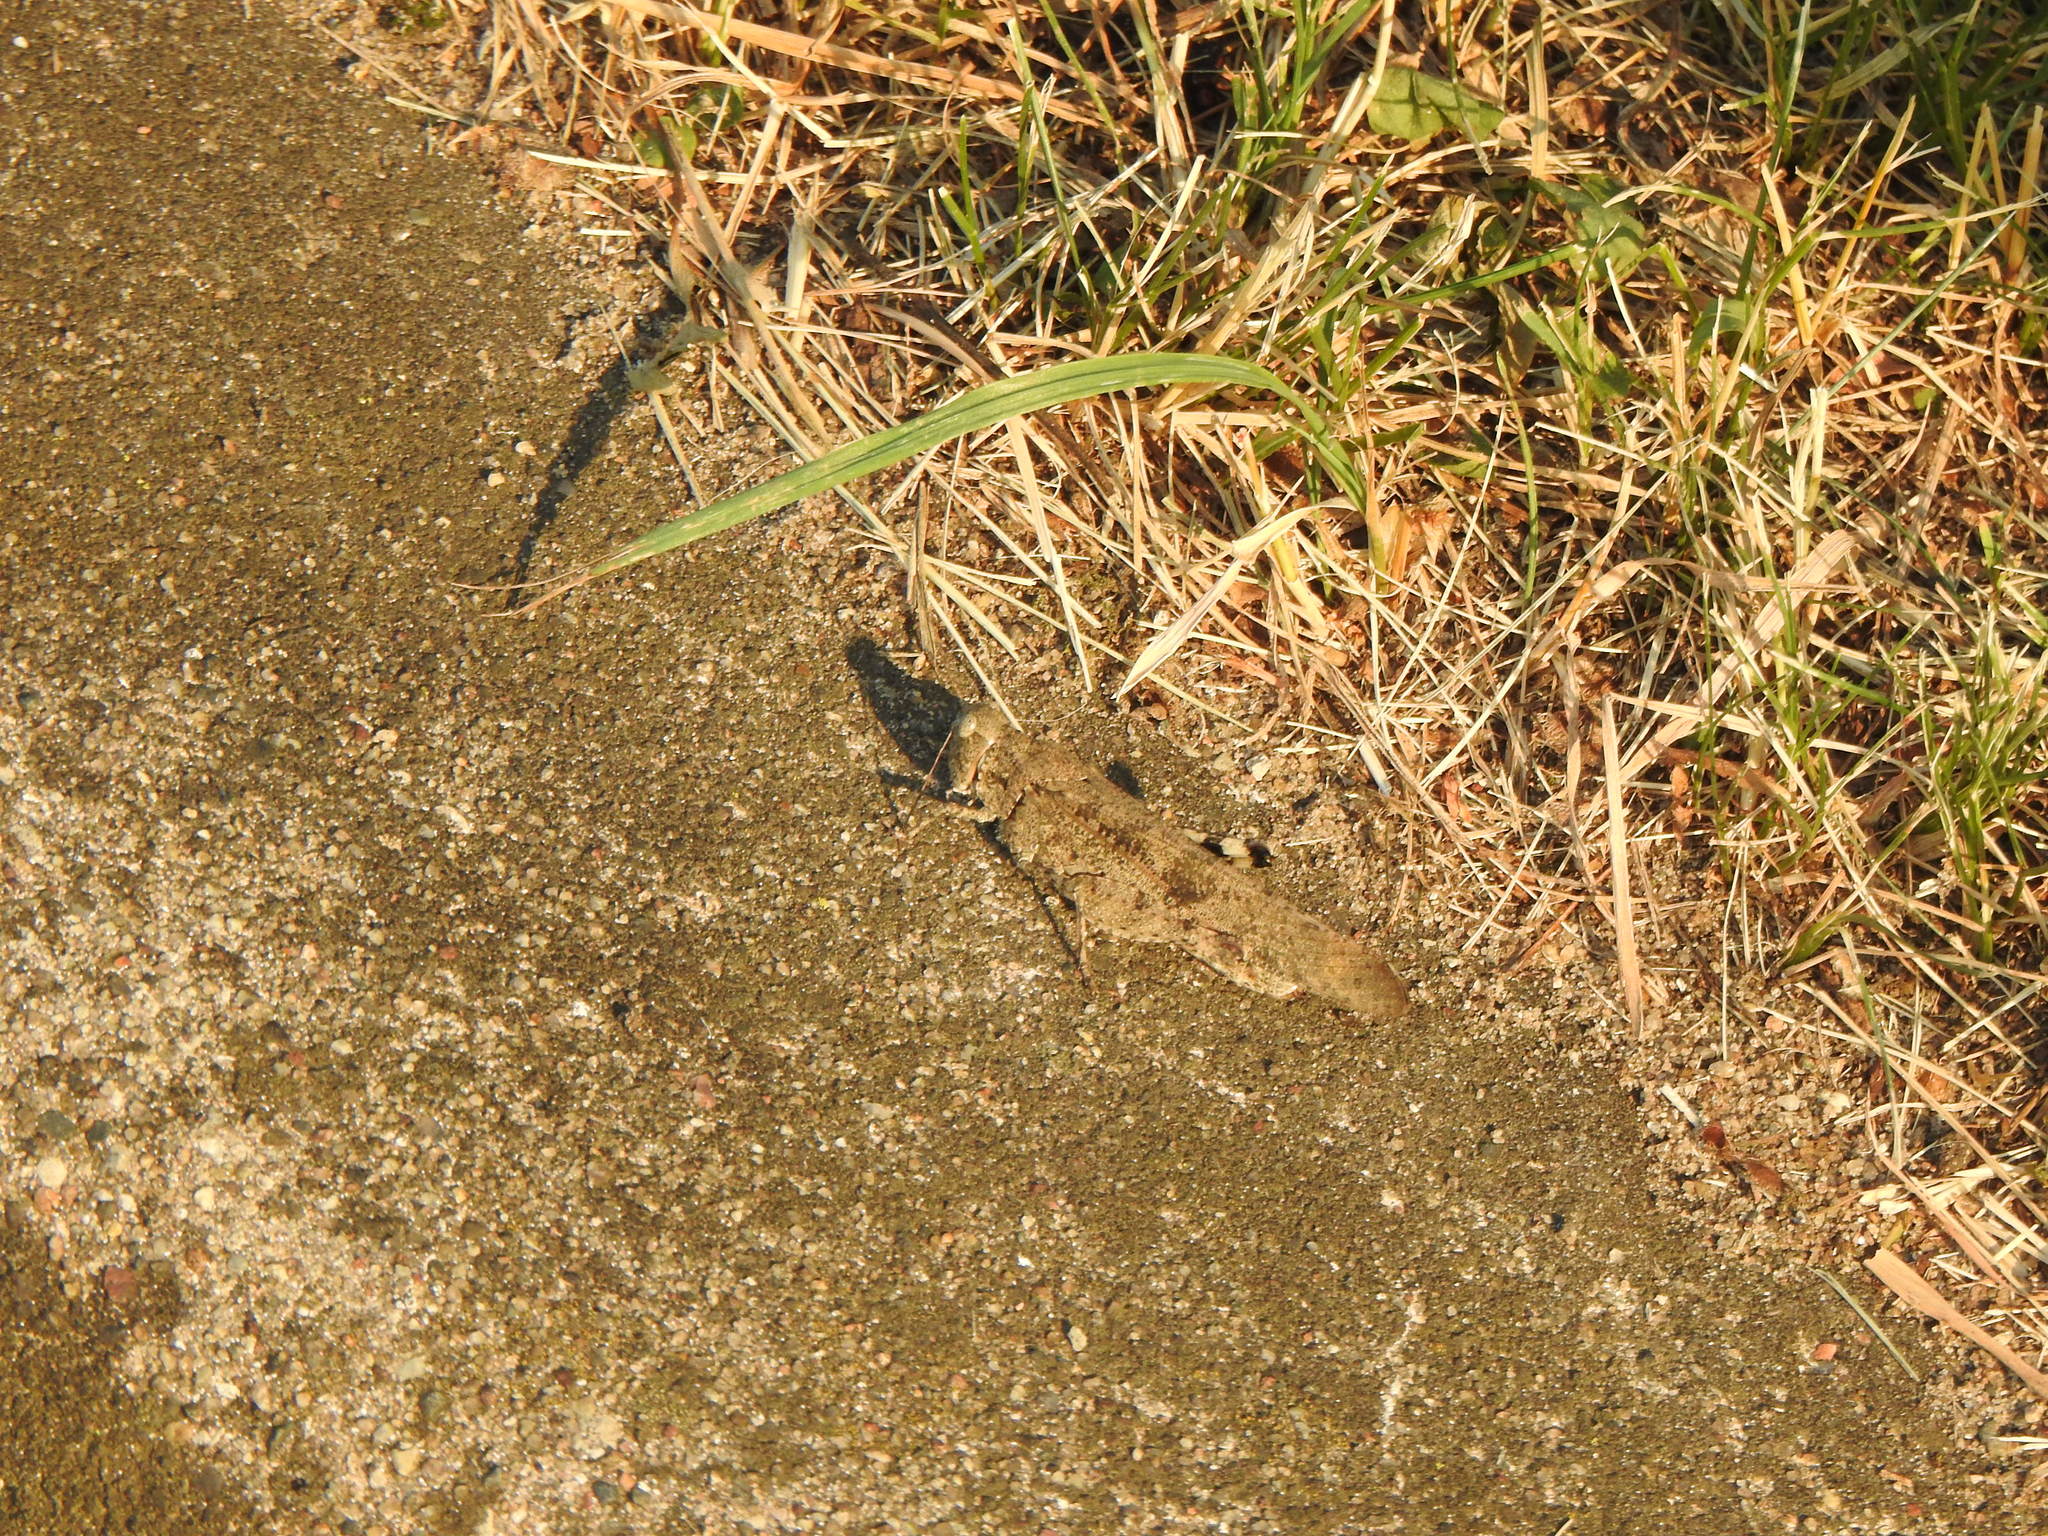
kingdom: Animalia
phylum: Arthropoda
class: Insecta
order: Orthoptera
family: Acrididae
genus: Dissosteira
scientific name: Dissosteira carolina
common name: Carolina grasshopper
